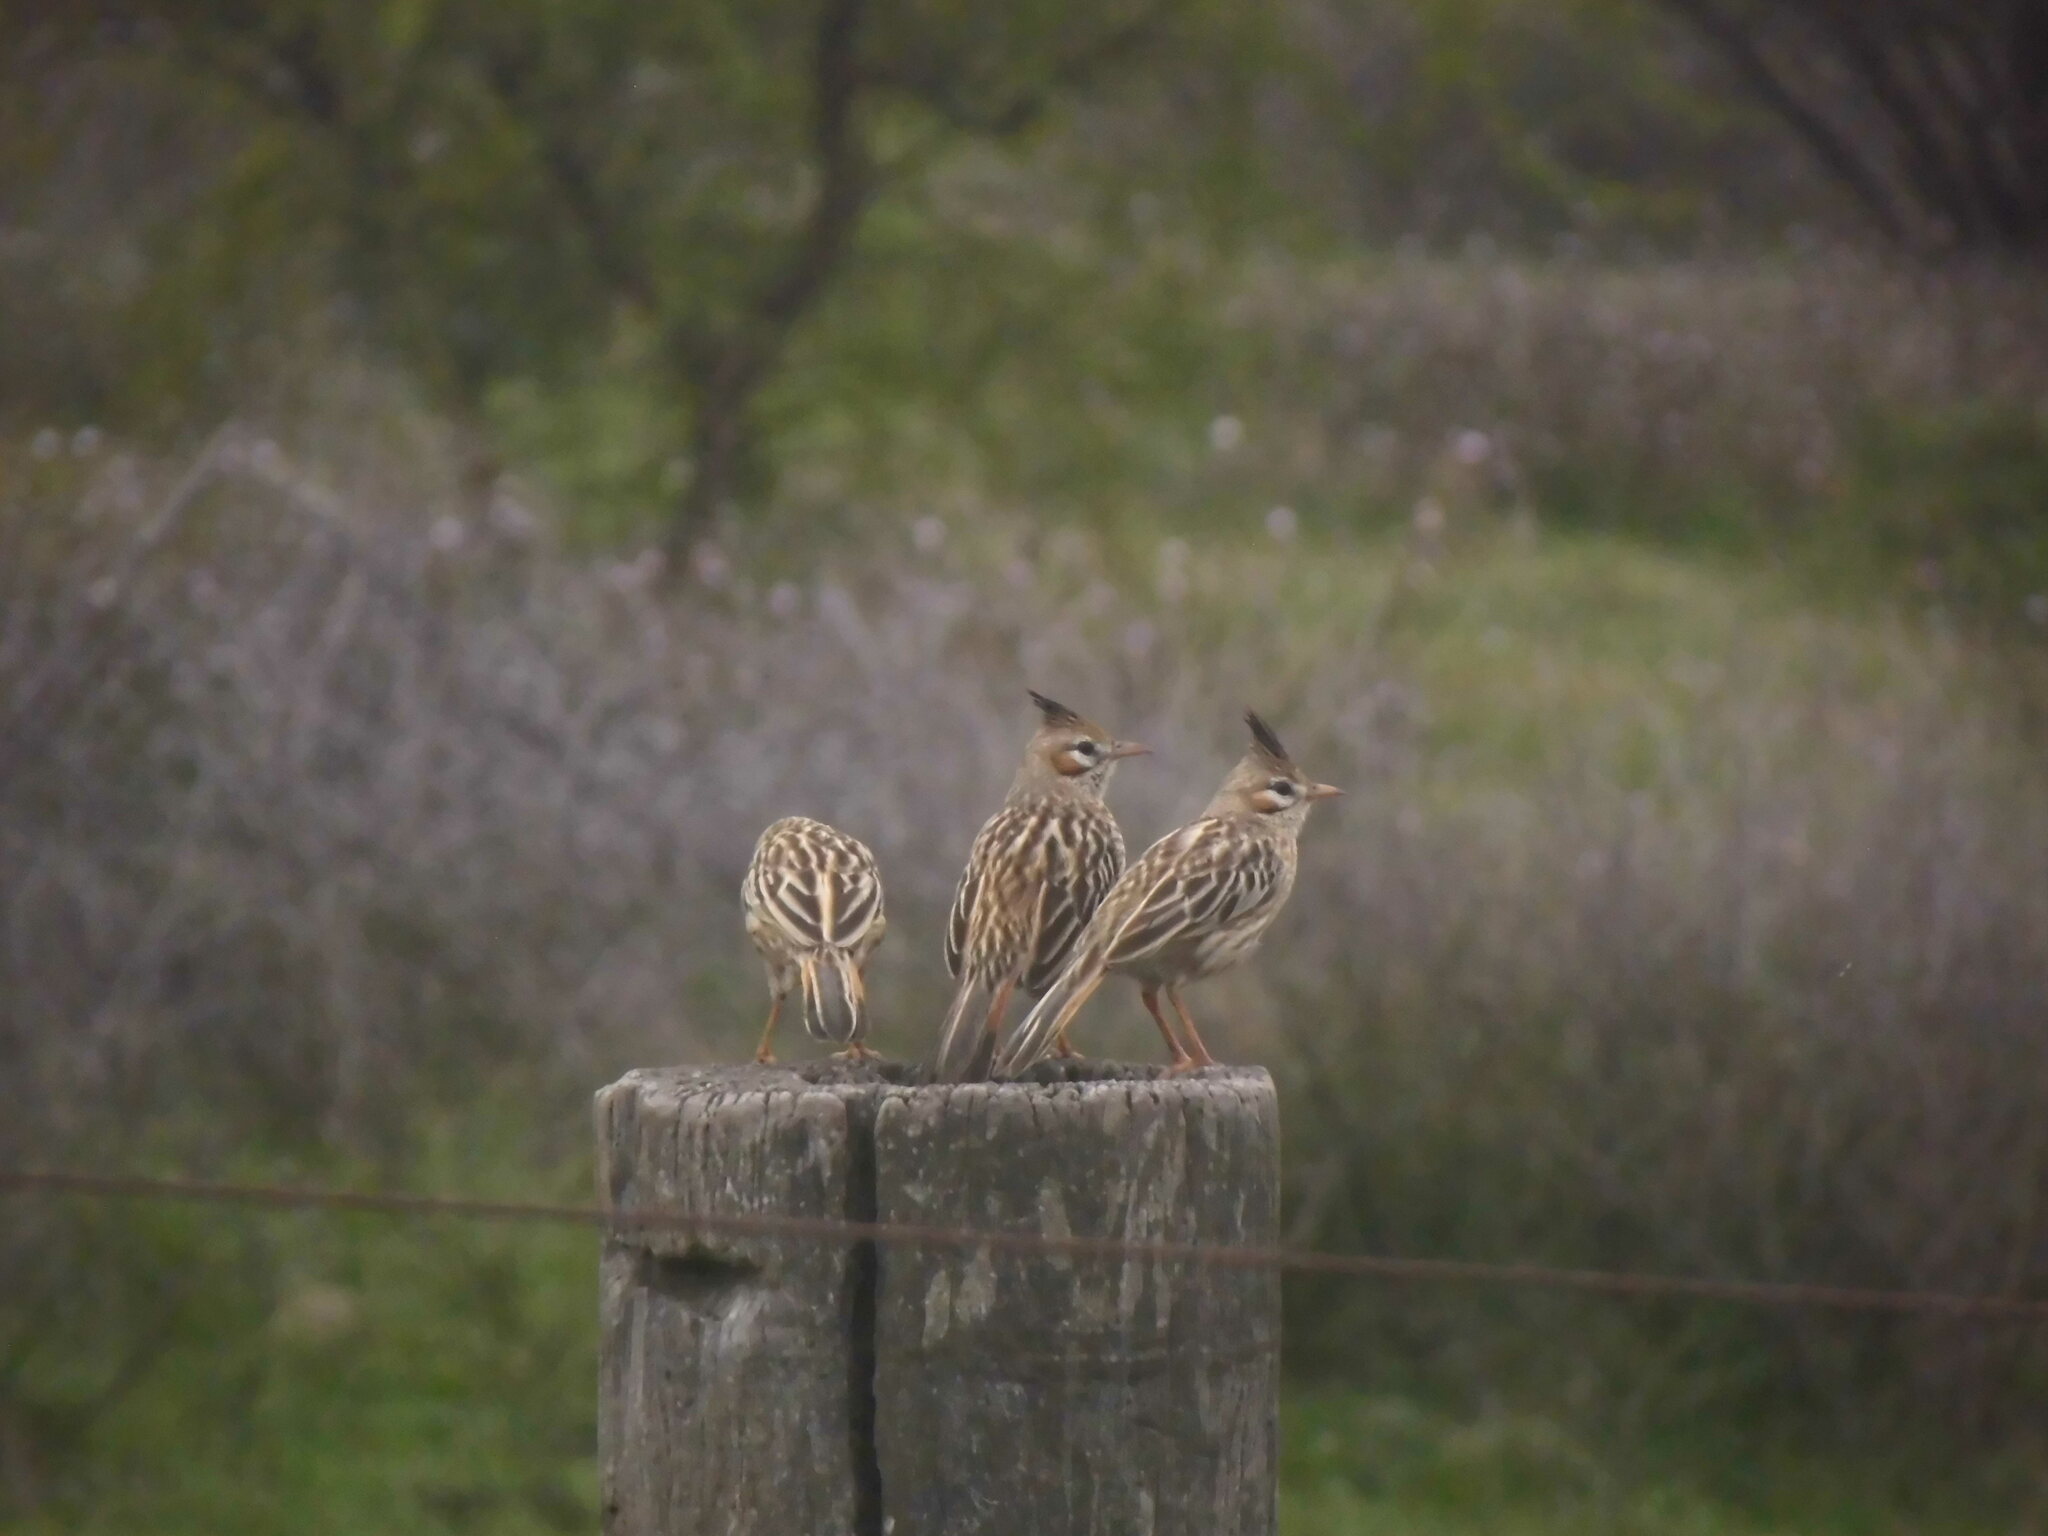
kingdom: Animalia
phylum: Chordata
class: Aves
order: Passeriformes
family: Furnariidae
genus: Coryphistera
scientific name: Coryphistera alaudina
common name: Lark-like brushrunner
